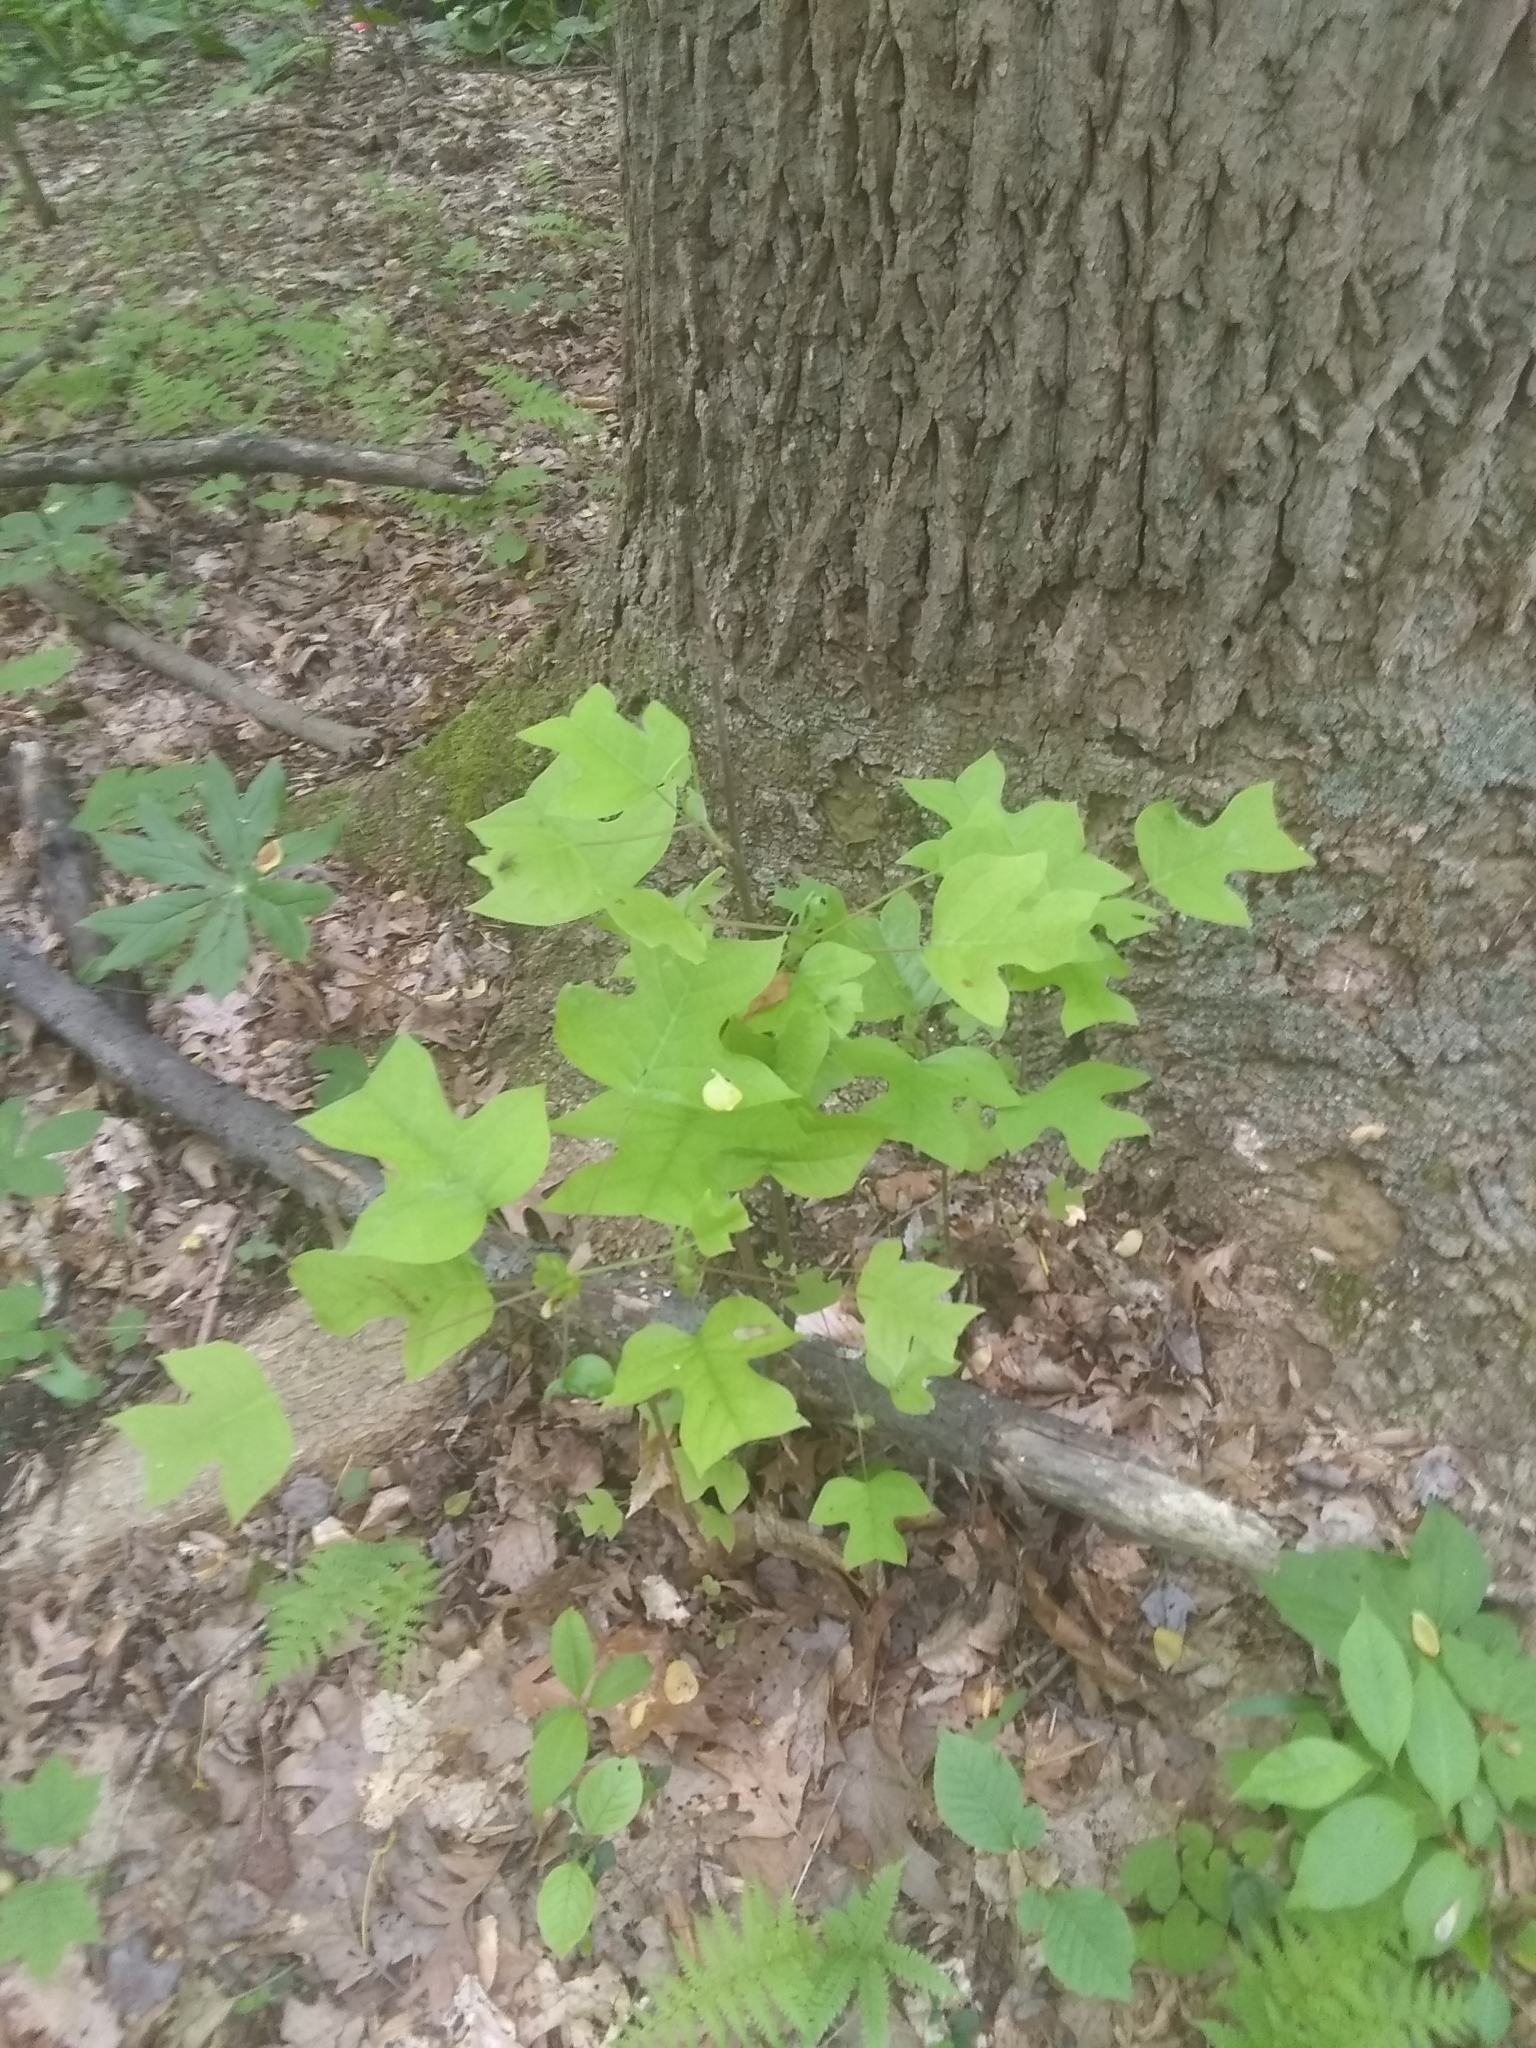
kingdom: Plantae
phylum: Tracheophyta
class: Magnoliopsida
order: Magnoliales
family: Magnoliaceae
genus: Liriodendron
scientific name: Liriodendron tulipifera
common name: Tulip tree
